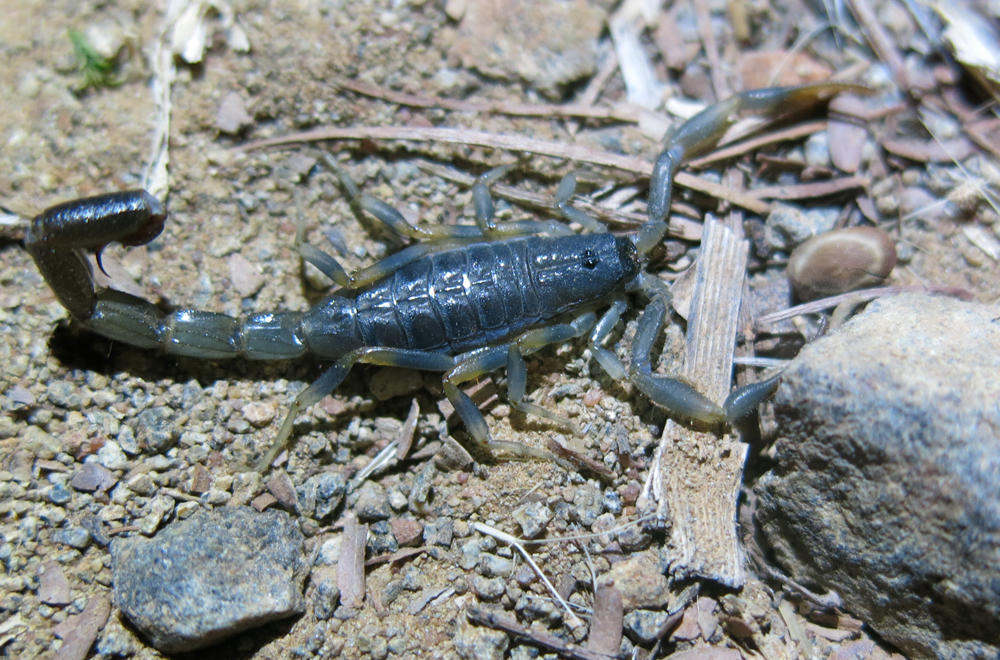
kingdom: Animalia
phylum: Arthropoda
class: Arachnida
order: Scorpiones
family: Buthidae
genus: Uroplectes
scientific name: Uroplectes flavoviridis
